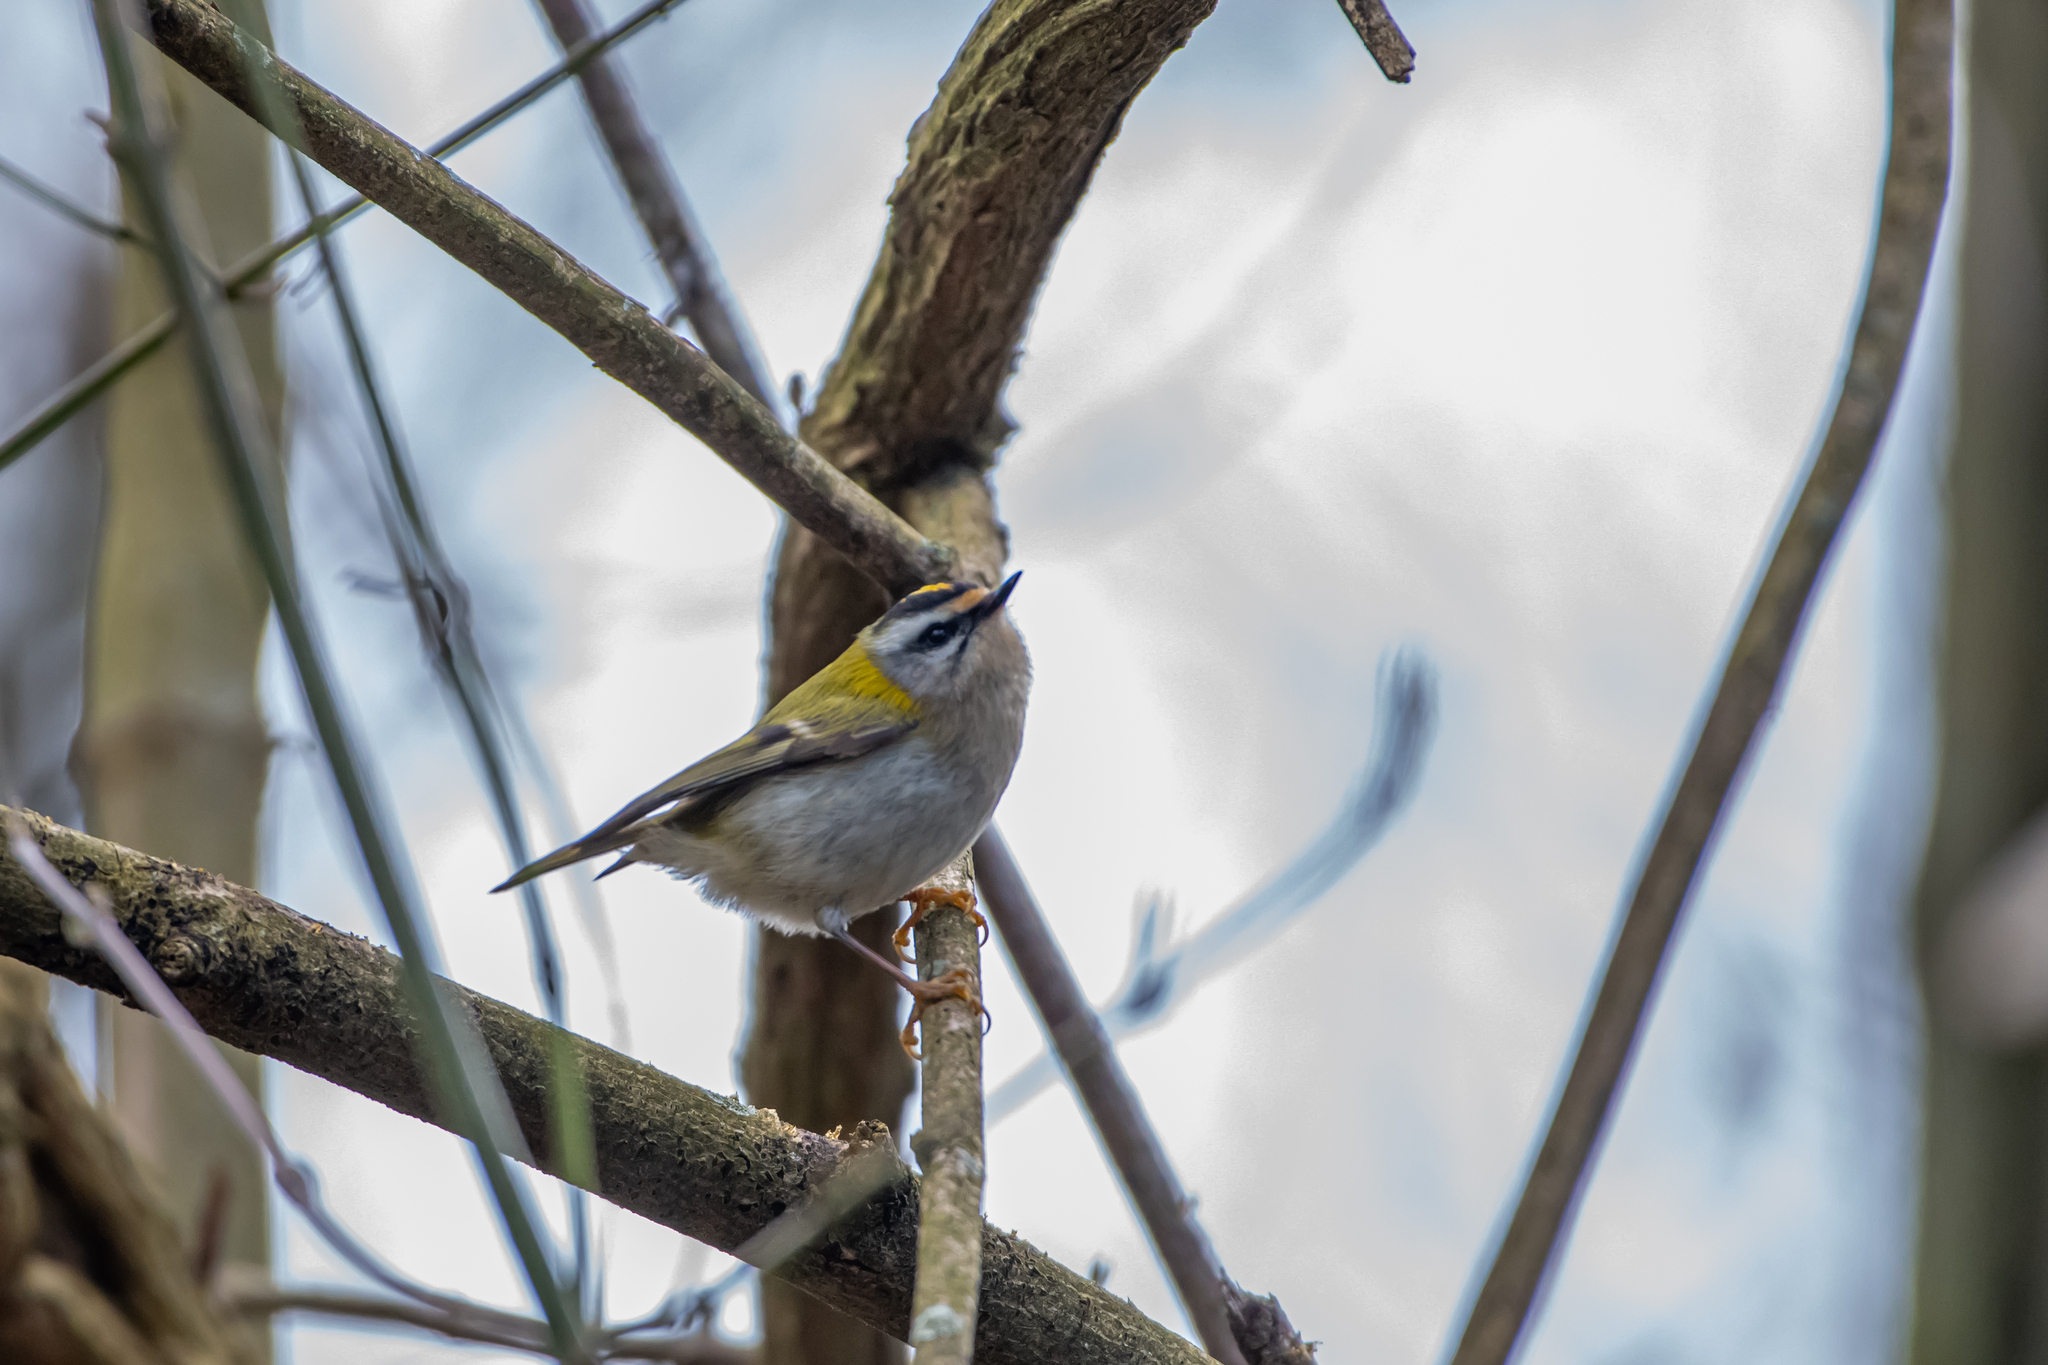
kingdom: Animalia
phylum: Chordata
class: Aves
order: Passeriformes
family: Regulidae
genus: Regulus
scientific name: Regulus ignicapilla
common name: Firecrest
